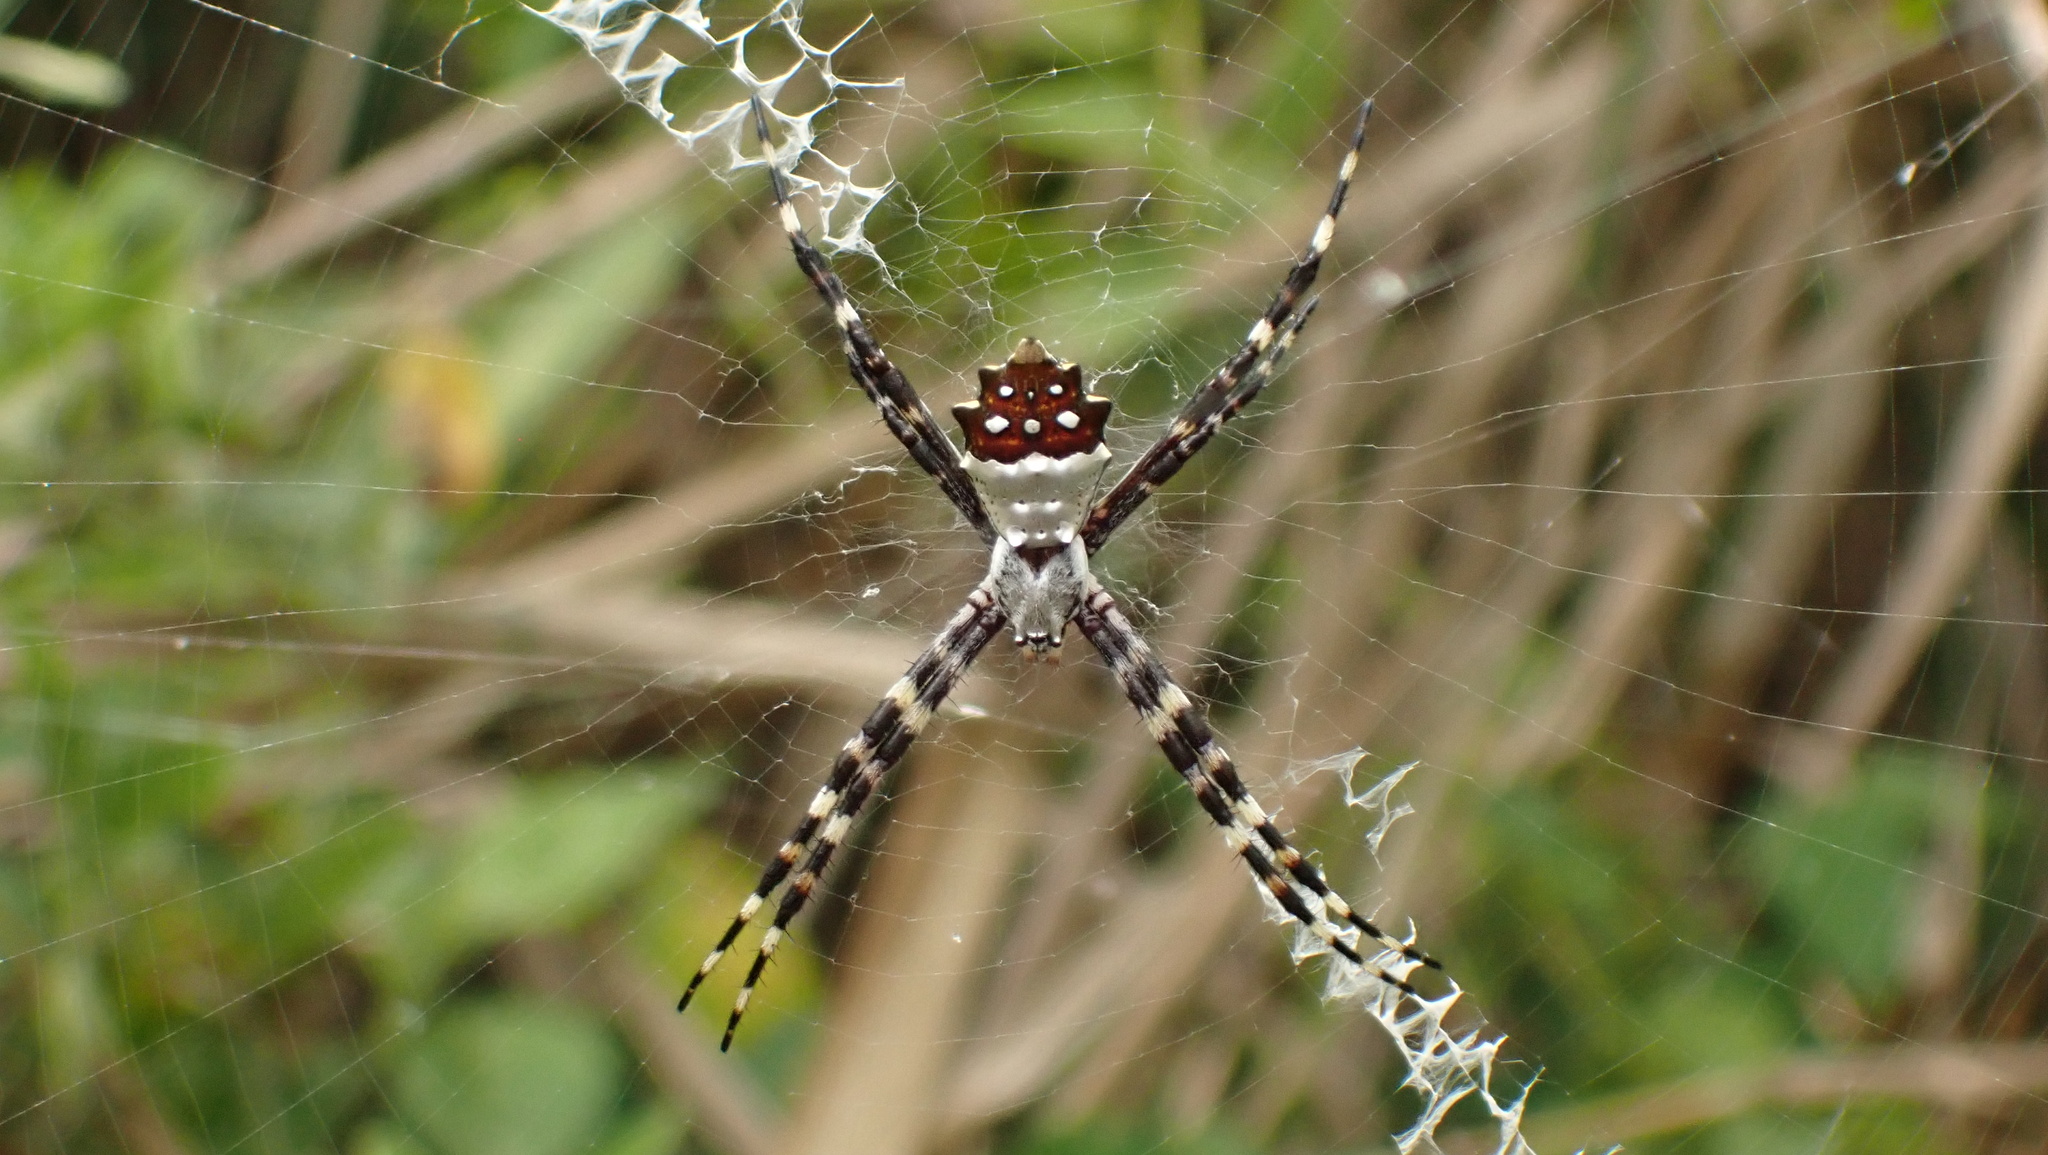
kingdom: Animalia
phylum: Arthropoda
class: Arachnida
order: Araneae
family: Araneidae
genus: Argiope
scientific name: Argiope argentata
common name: Orb weavers
